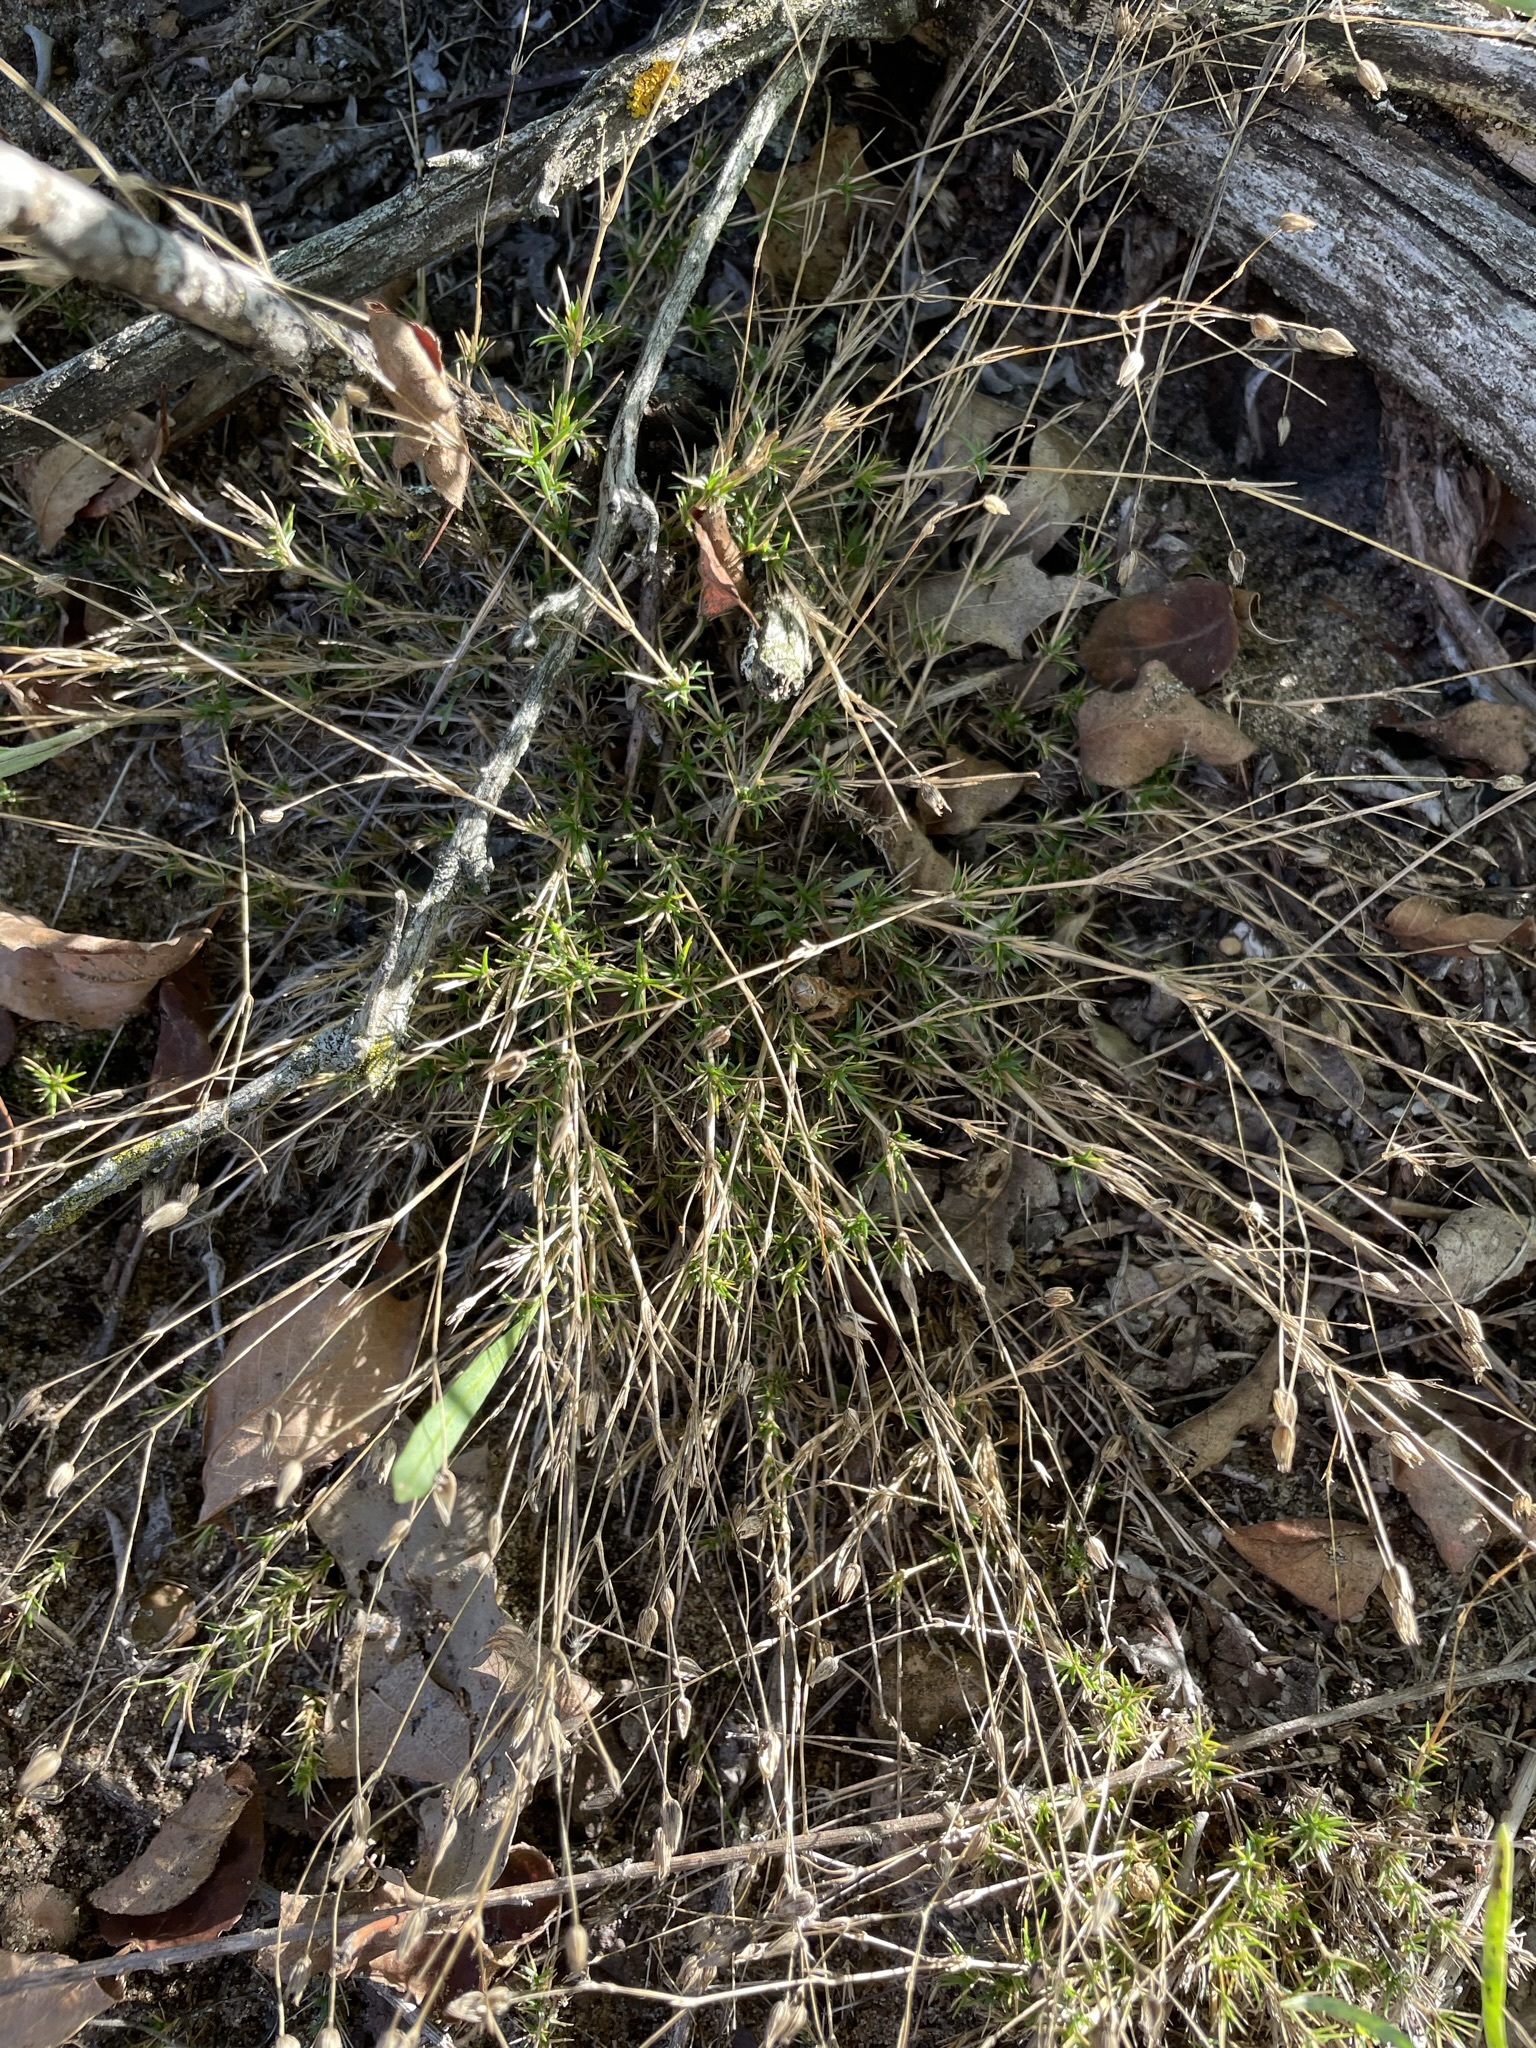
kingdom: Plantae
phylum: Tracheophyta
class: Magnoliopsida
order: Caryophyllales
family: Caryophyllaceae
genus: Sabulina
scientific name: Sabulina michauxii
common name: Michaux's stitchwort
